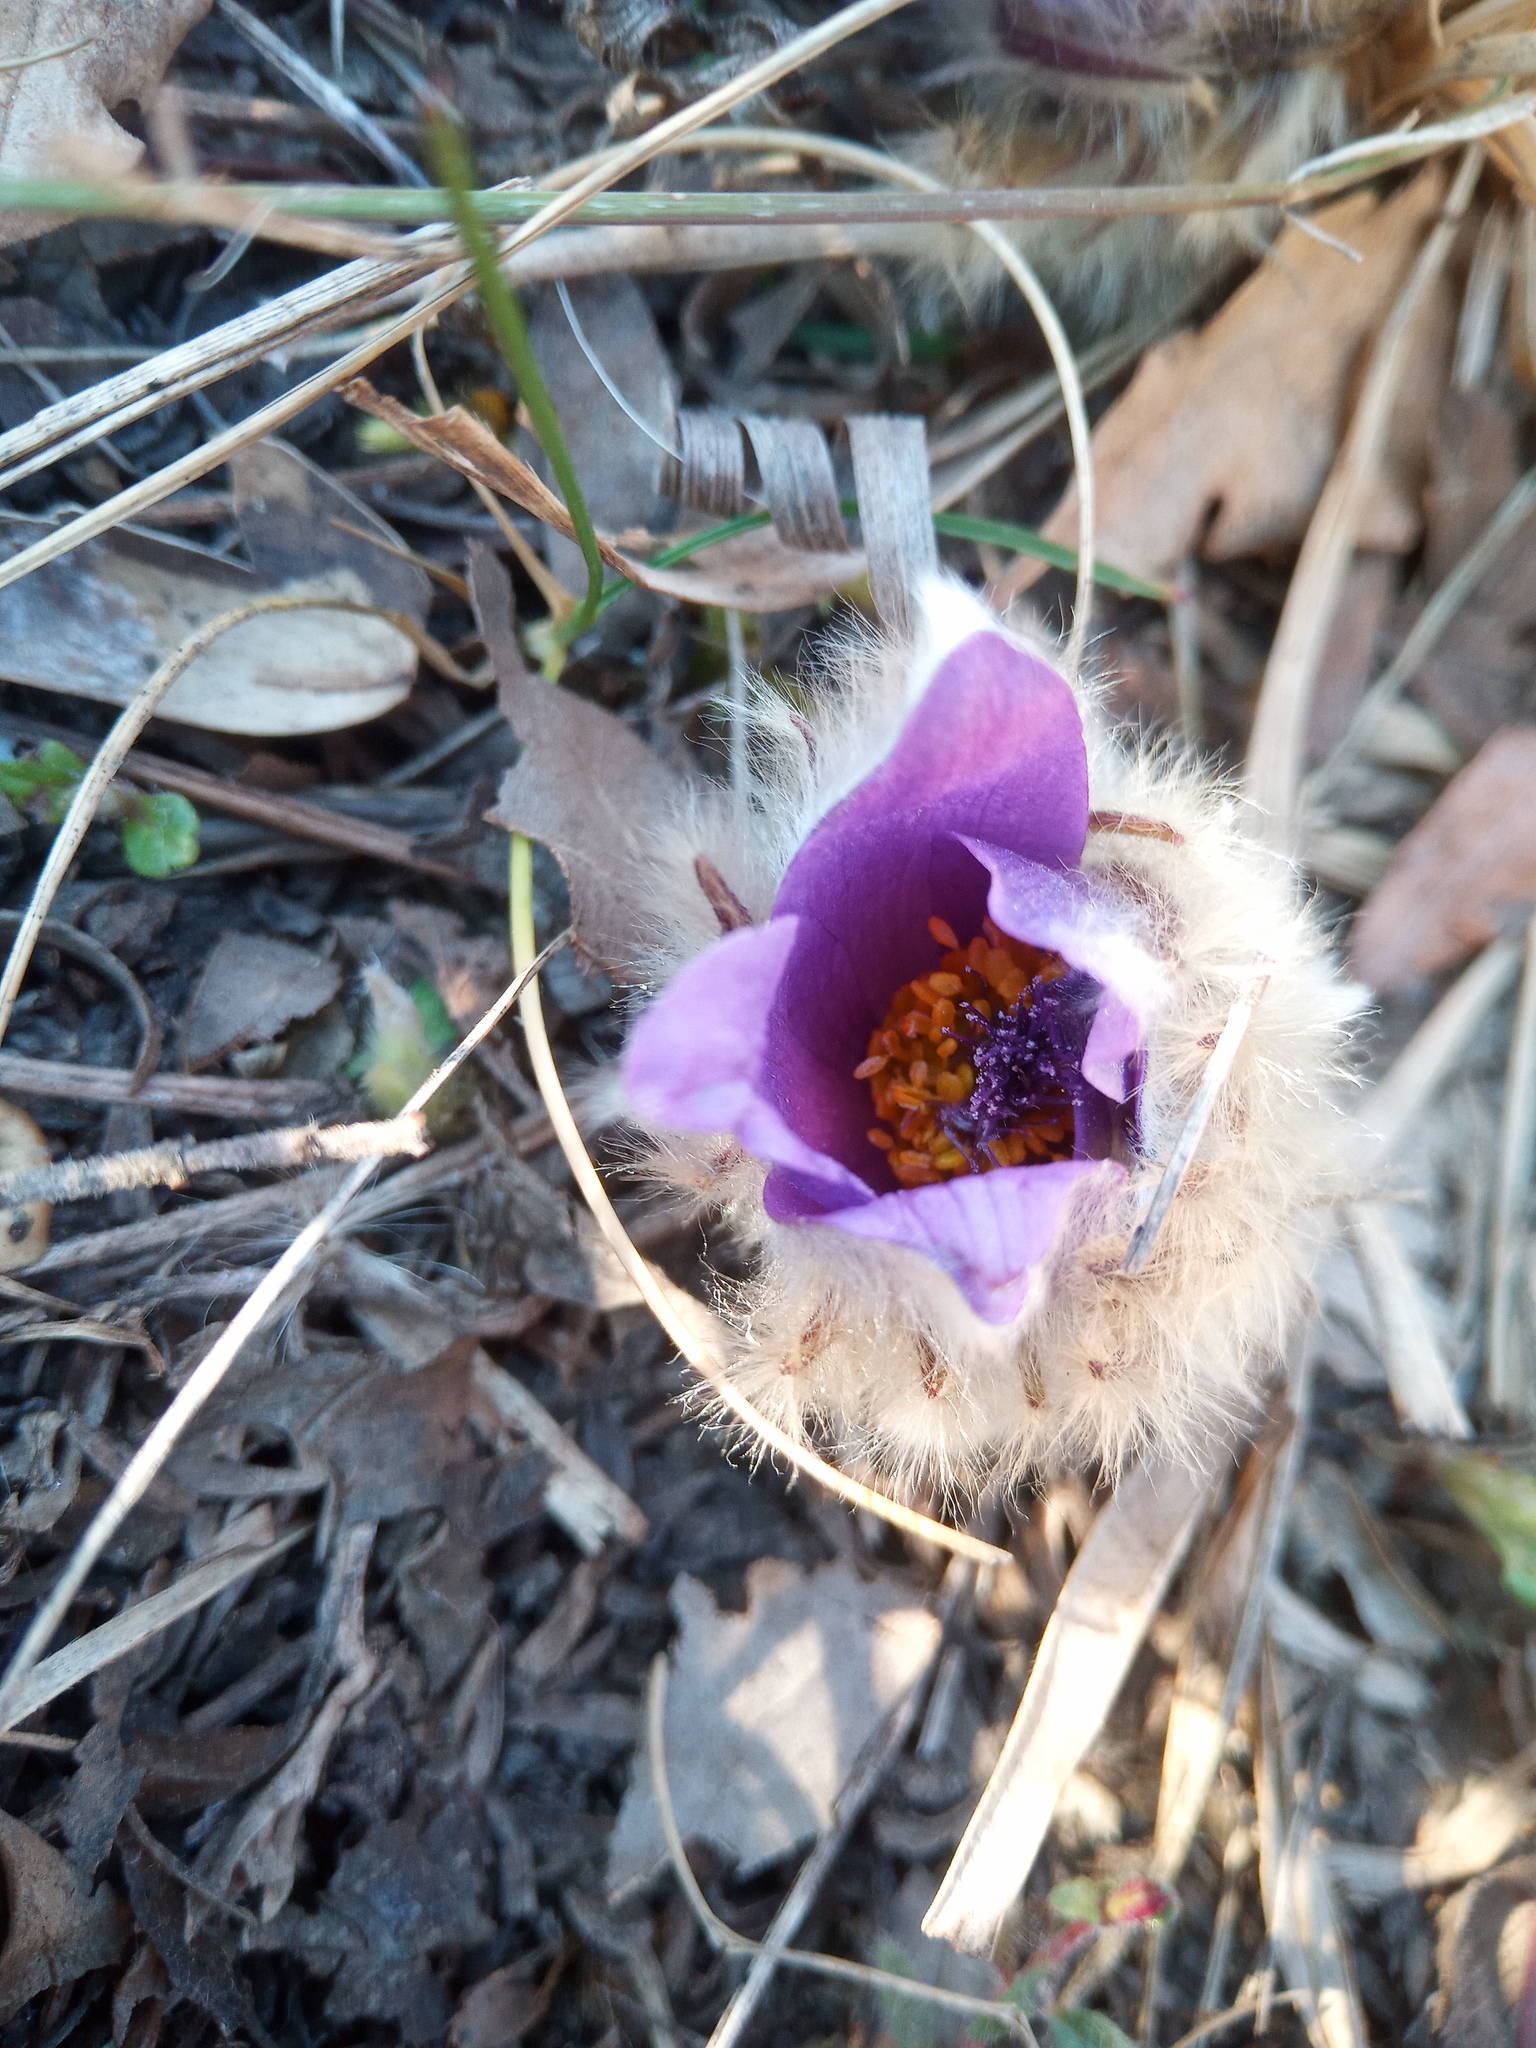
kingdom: Plantae
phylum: Tracheophyta
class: Magnoliopsida
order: Ranunculales
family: Ranunculaceae
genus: Pulsatilla
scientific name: Pulsatilla grandis
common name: Greater pasque flower
